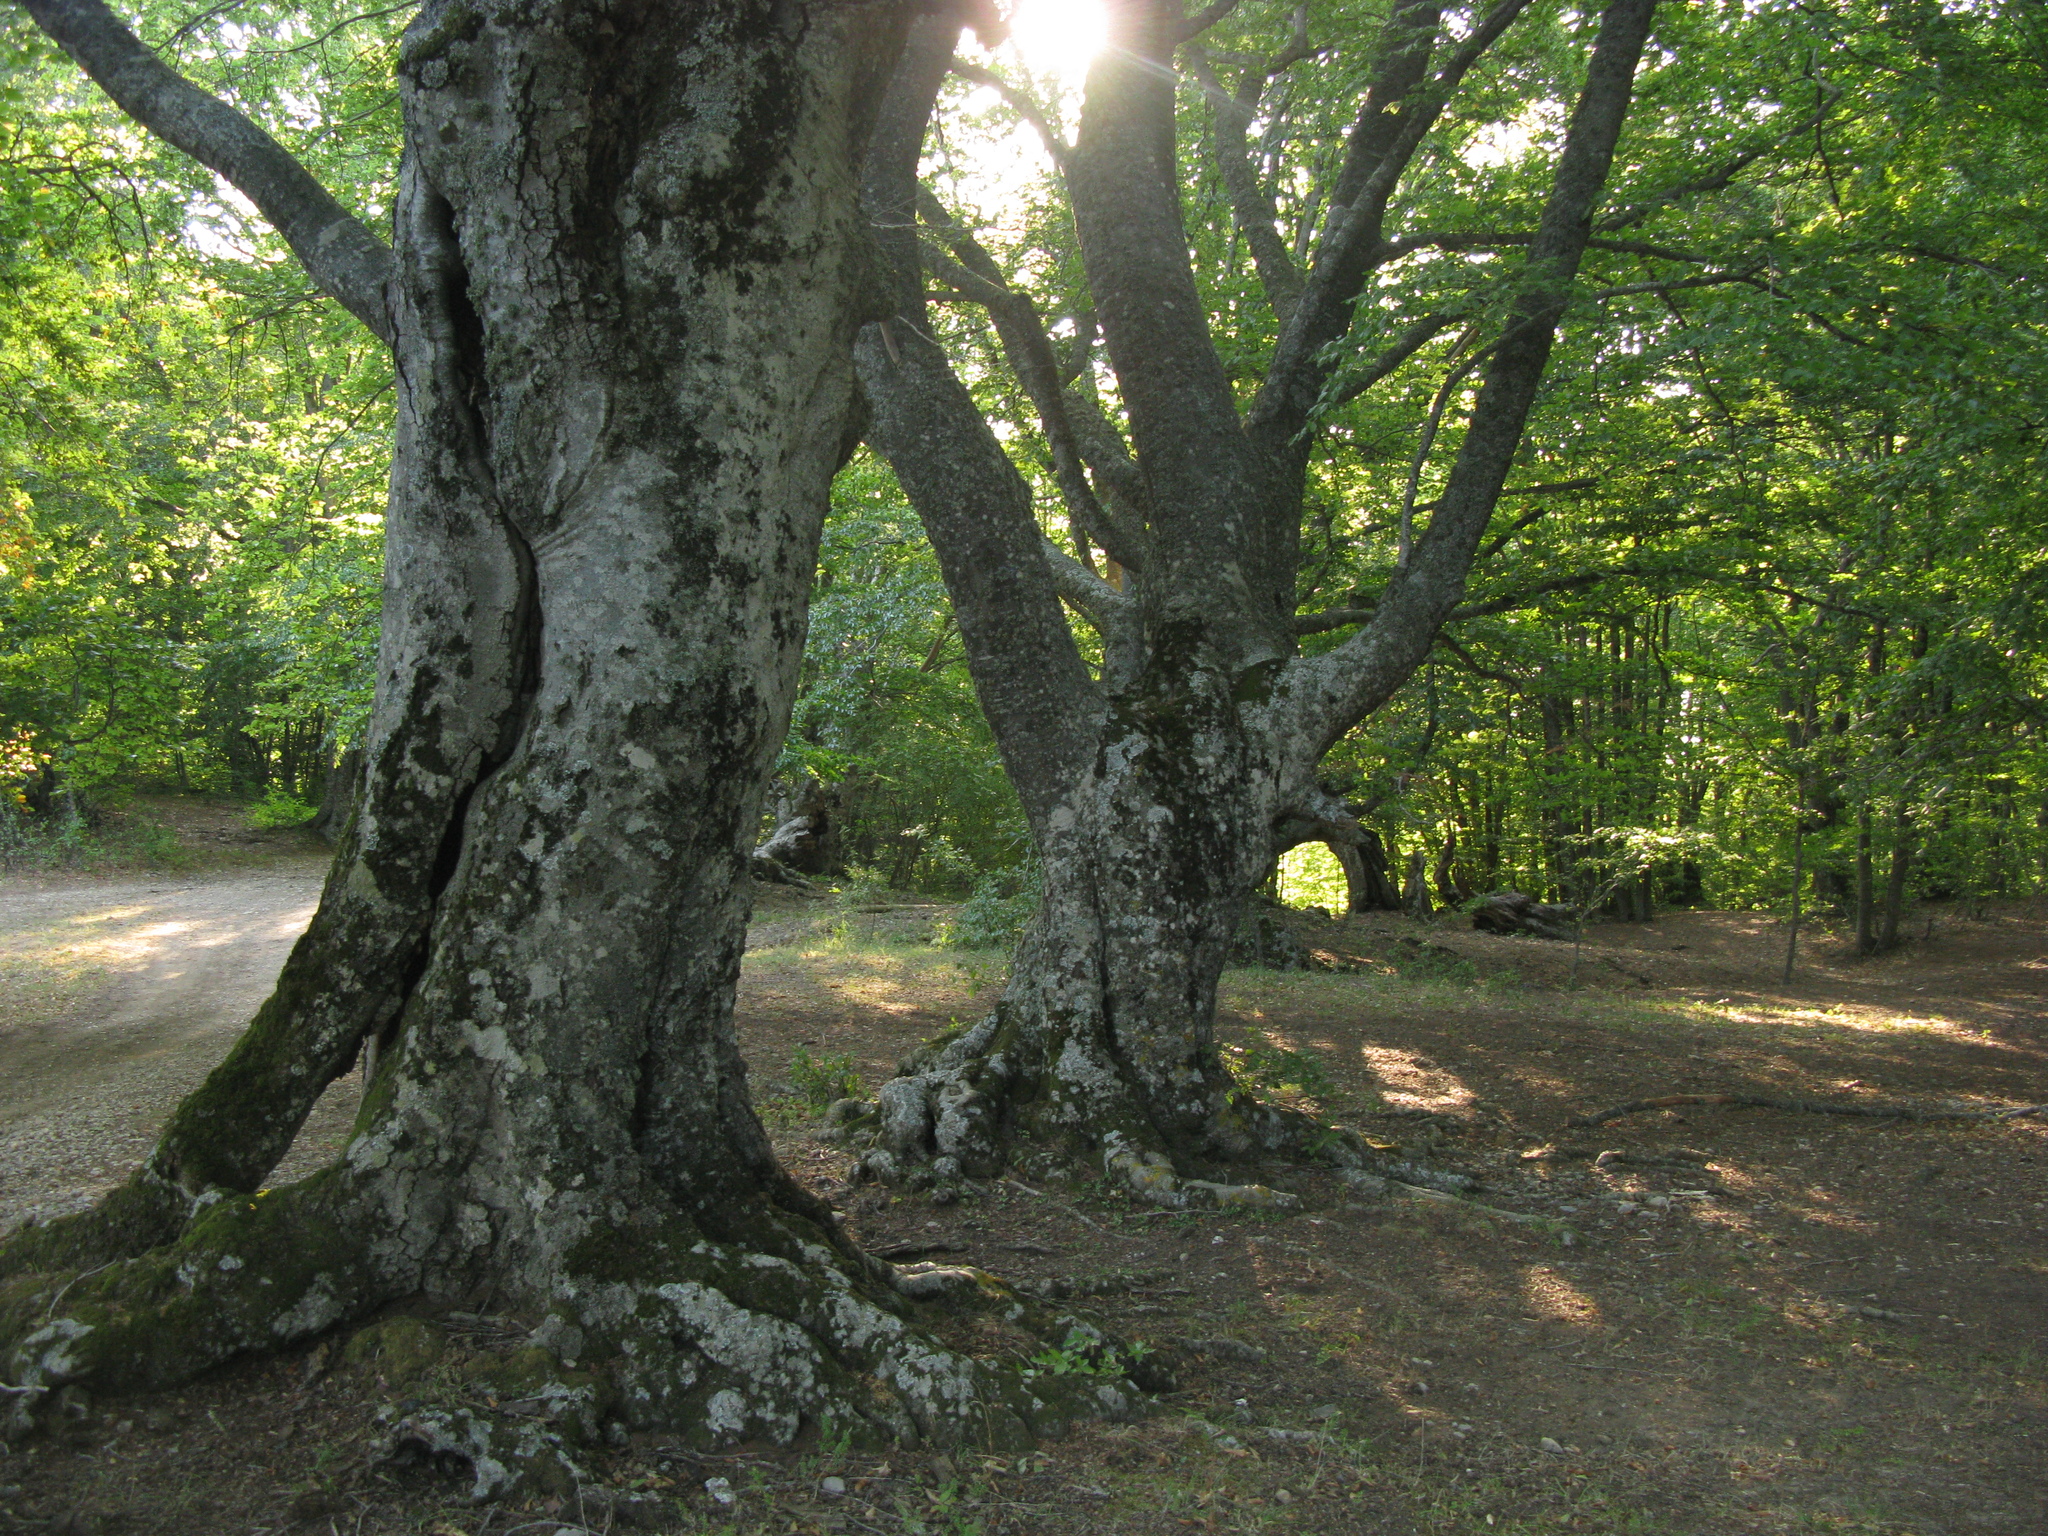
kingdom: Plantae
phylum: Tracheophyta
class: Magnoliopsida
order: Fagales
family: Fagaceae
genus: Fagus
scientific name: Fagus taurica
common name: Crimean beech
